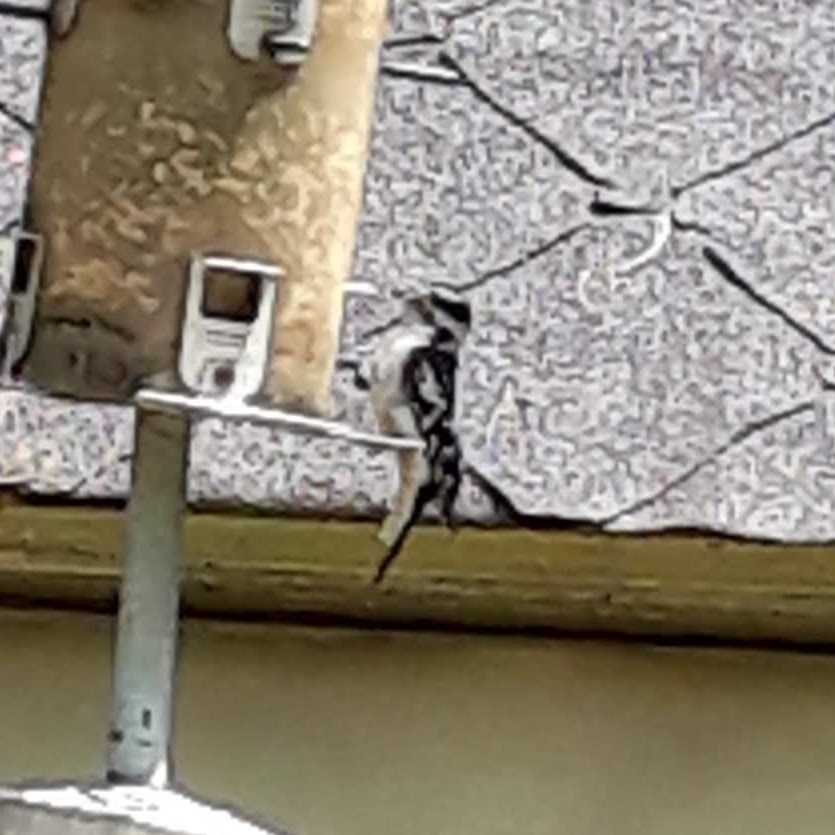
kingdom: Animalia
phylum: Chordata
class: Aves
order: Piciformes
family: Picidae
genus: Dryobates
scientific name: Dryobates pubescens
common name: Downy woodpecker
